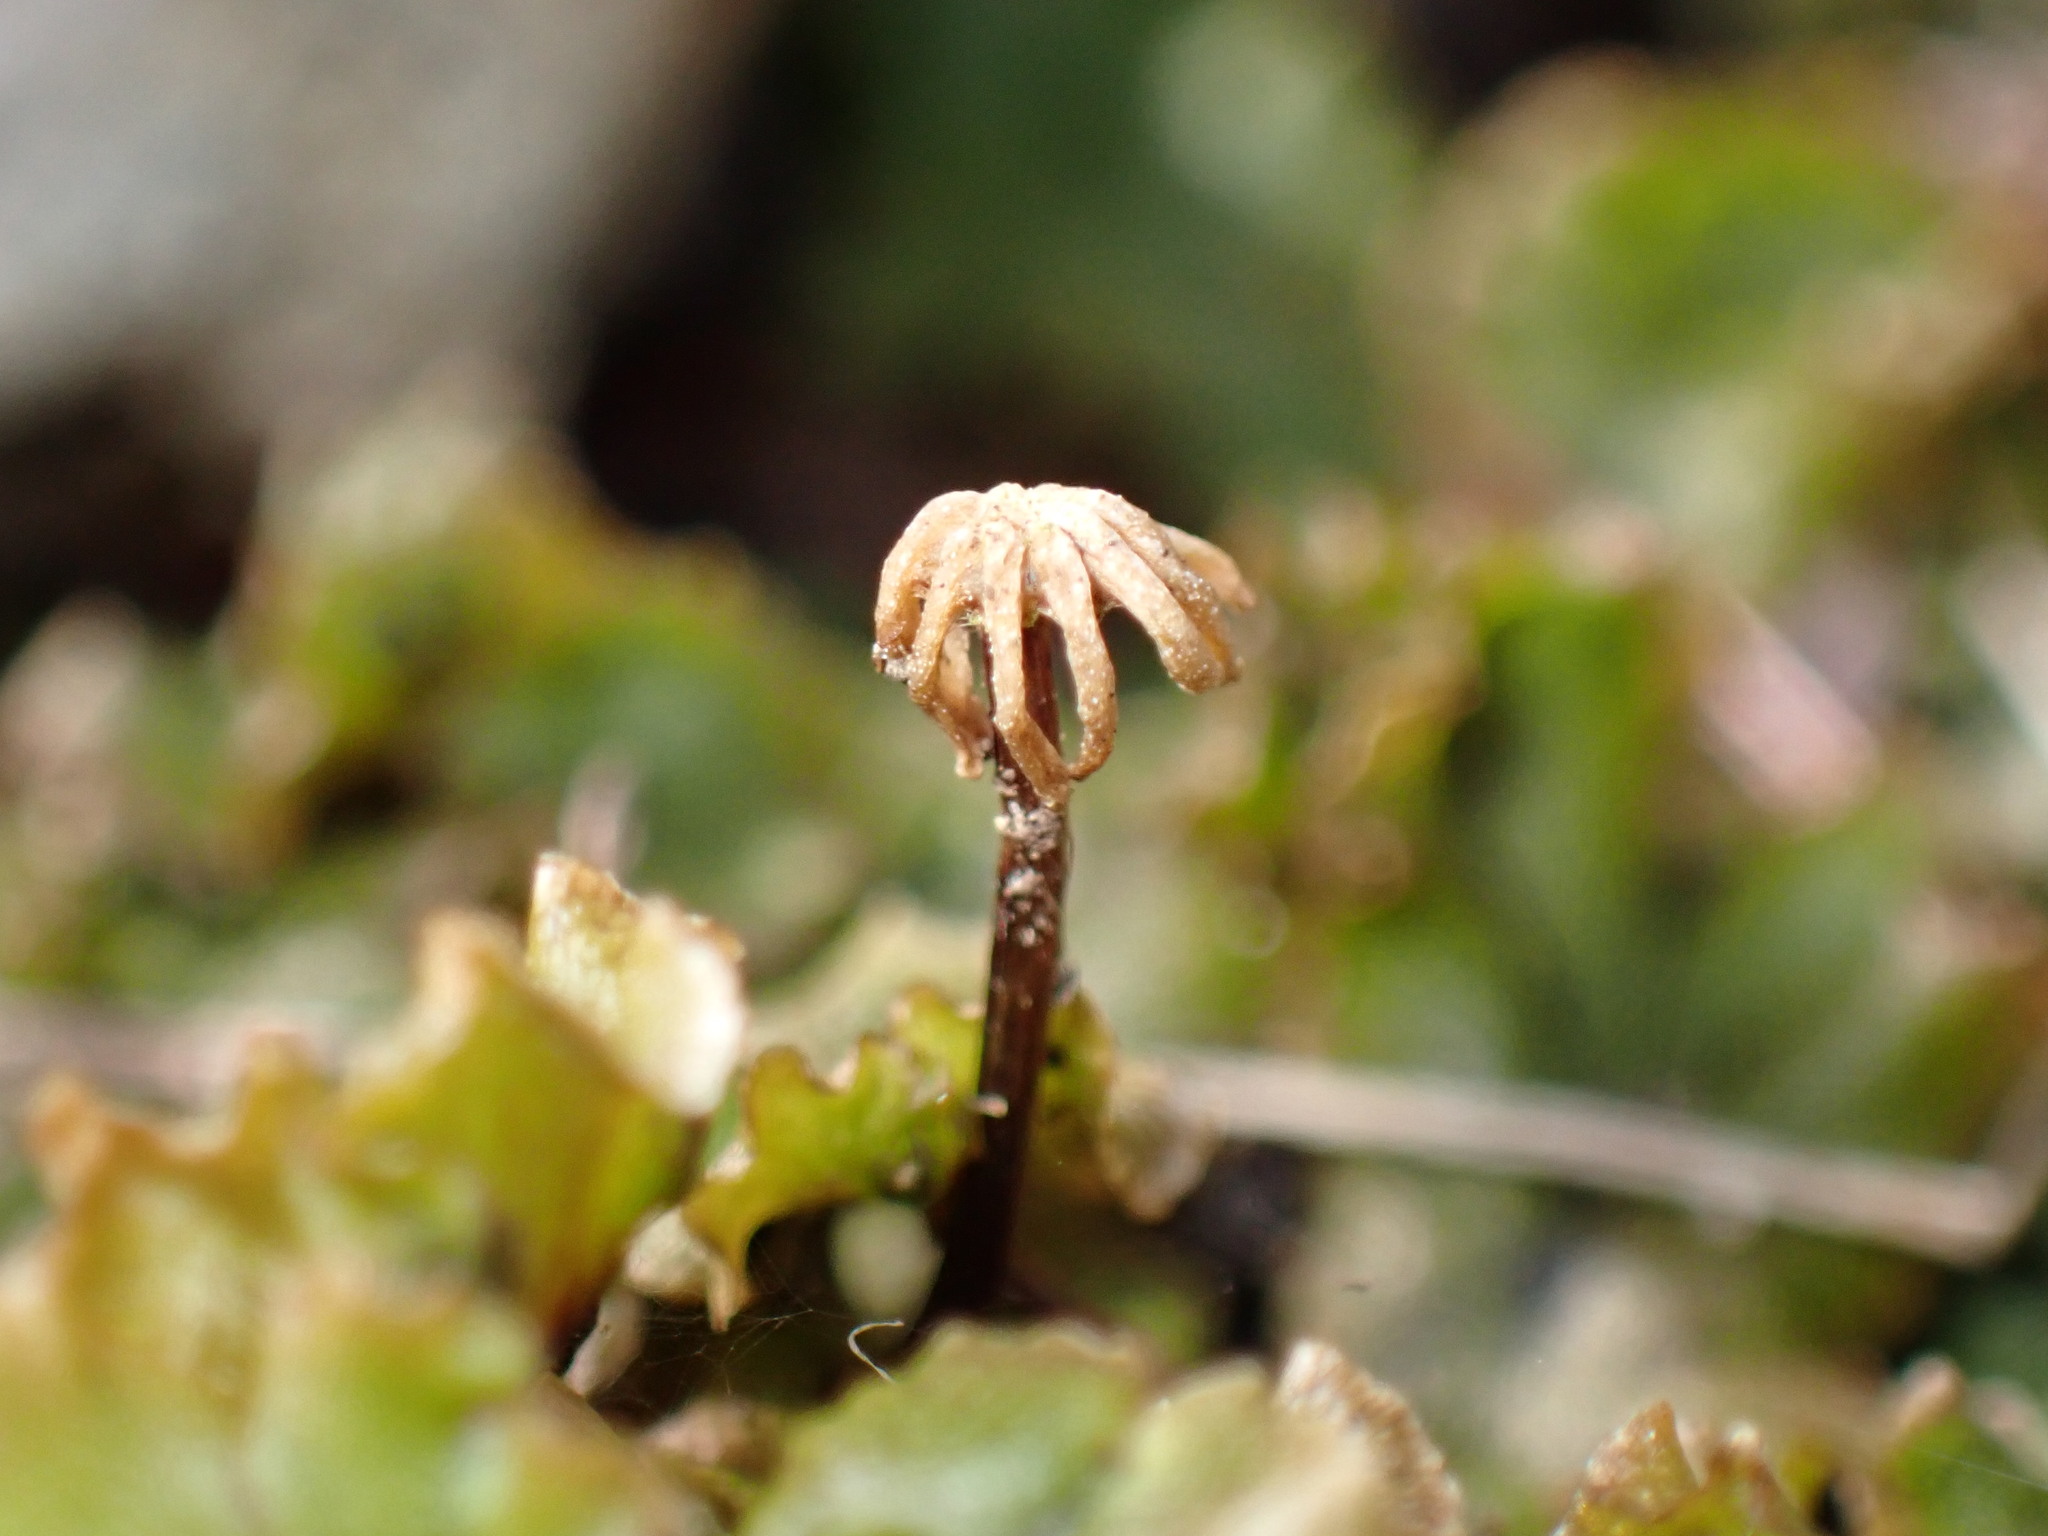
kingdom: Plantae
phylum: Marchantiophyta
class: Marchantiopsida
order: Marchantiales
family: Marchantiaceae
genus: Marchantia
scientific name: Marchantia polymorpha
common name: Common liverwort
